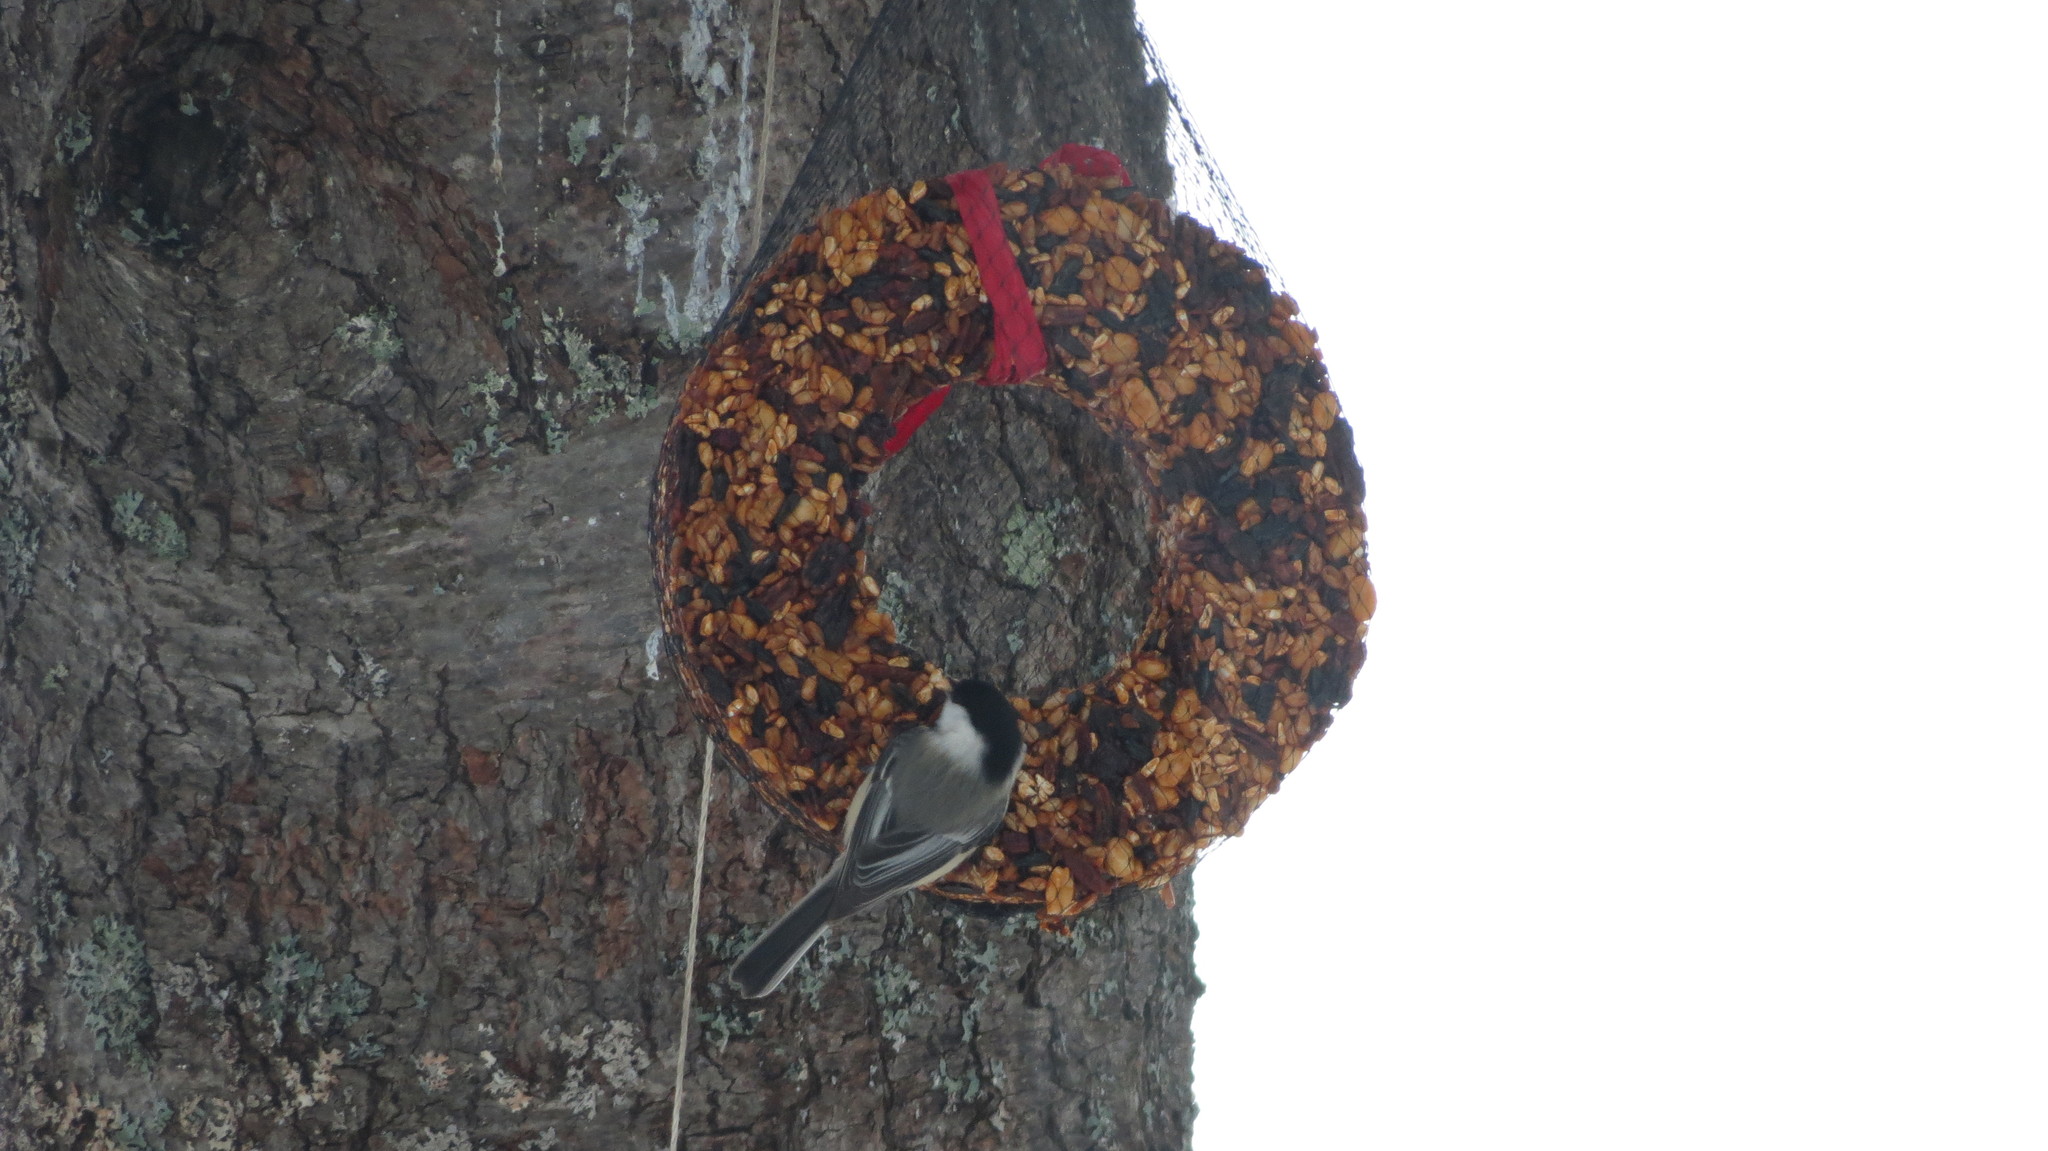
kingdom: Animalia
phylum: Chordata
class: Aves
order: Passeriformes
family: Paridae
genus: Poecile
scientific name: Poecile atricapillus
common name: Black-capped chickadee
